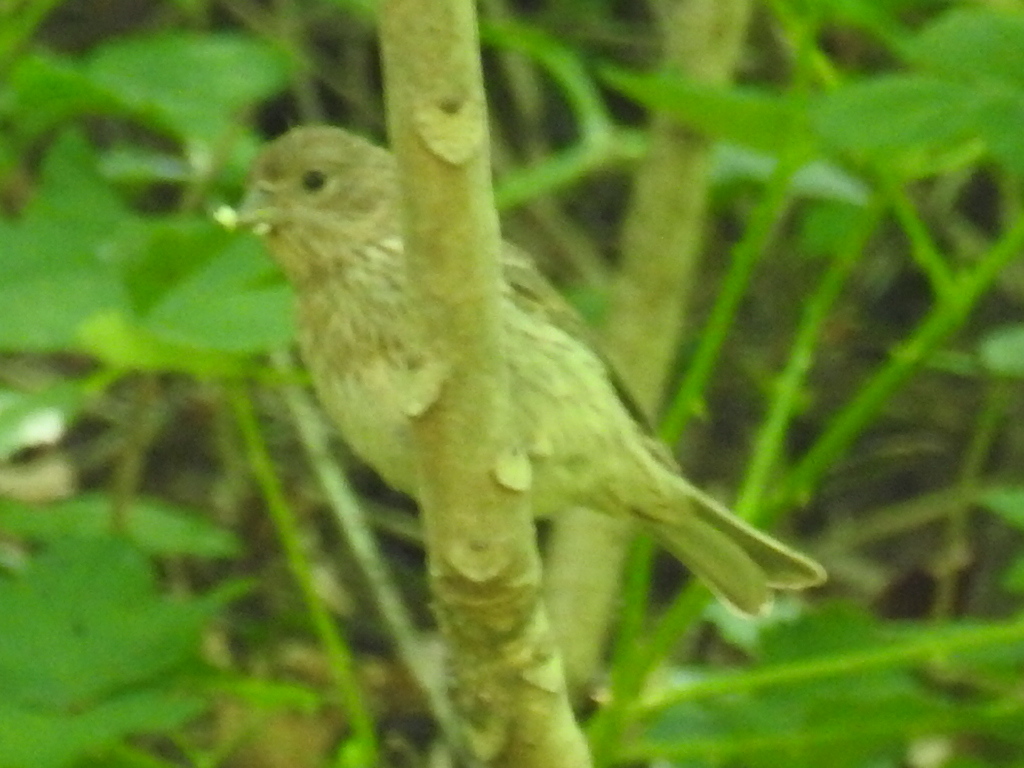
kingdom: Animalia
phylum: Chordata
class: Aves
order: Passeriformes
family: Fringillidae
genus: Haemorhous
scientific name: Haemorhous mexicanus
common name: House finch
